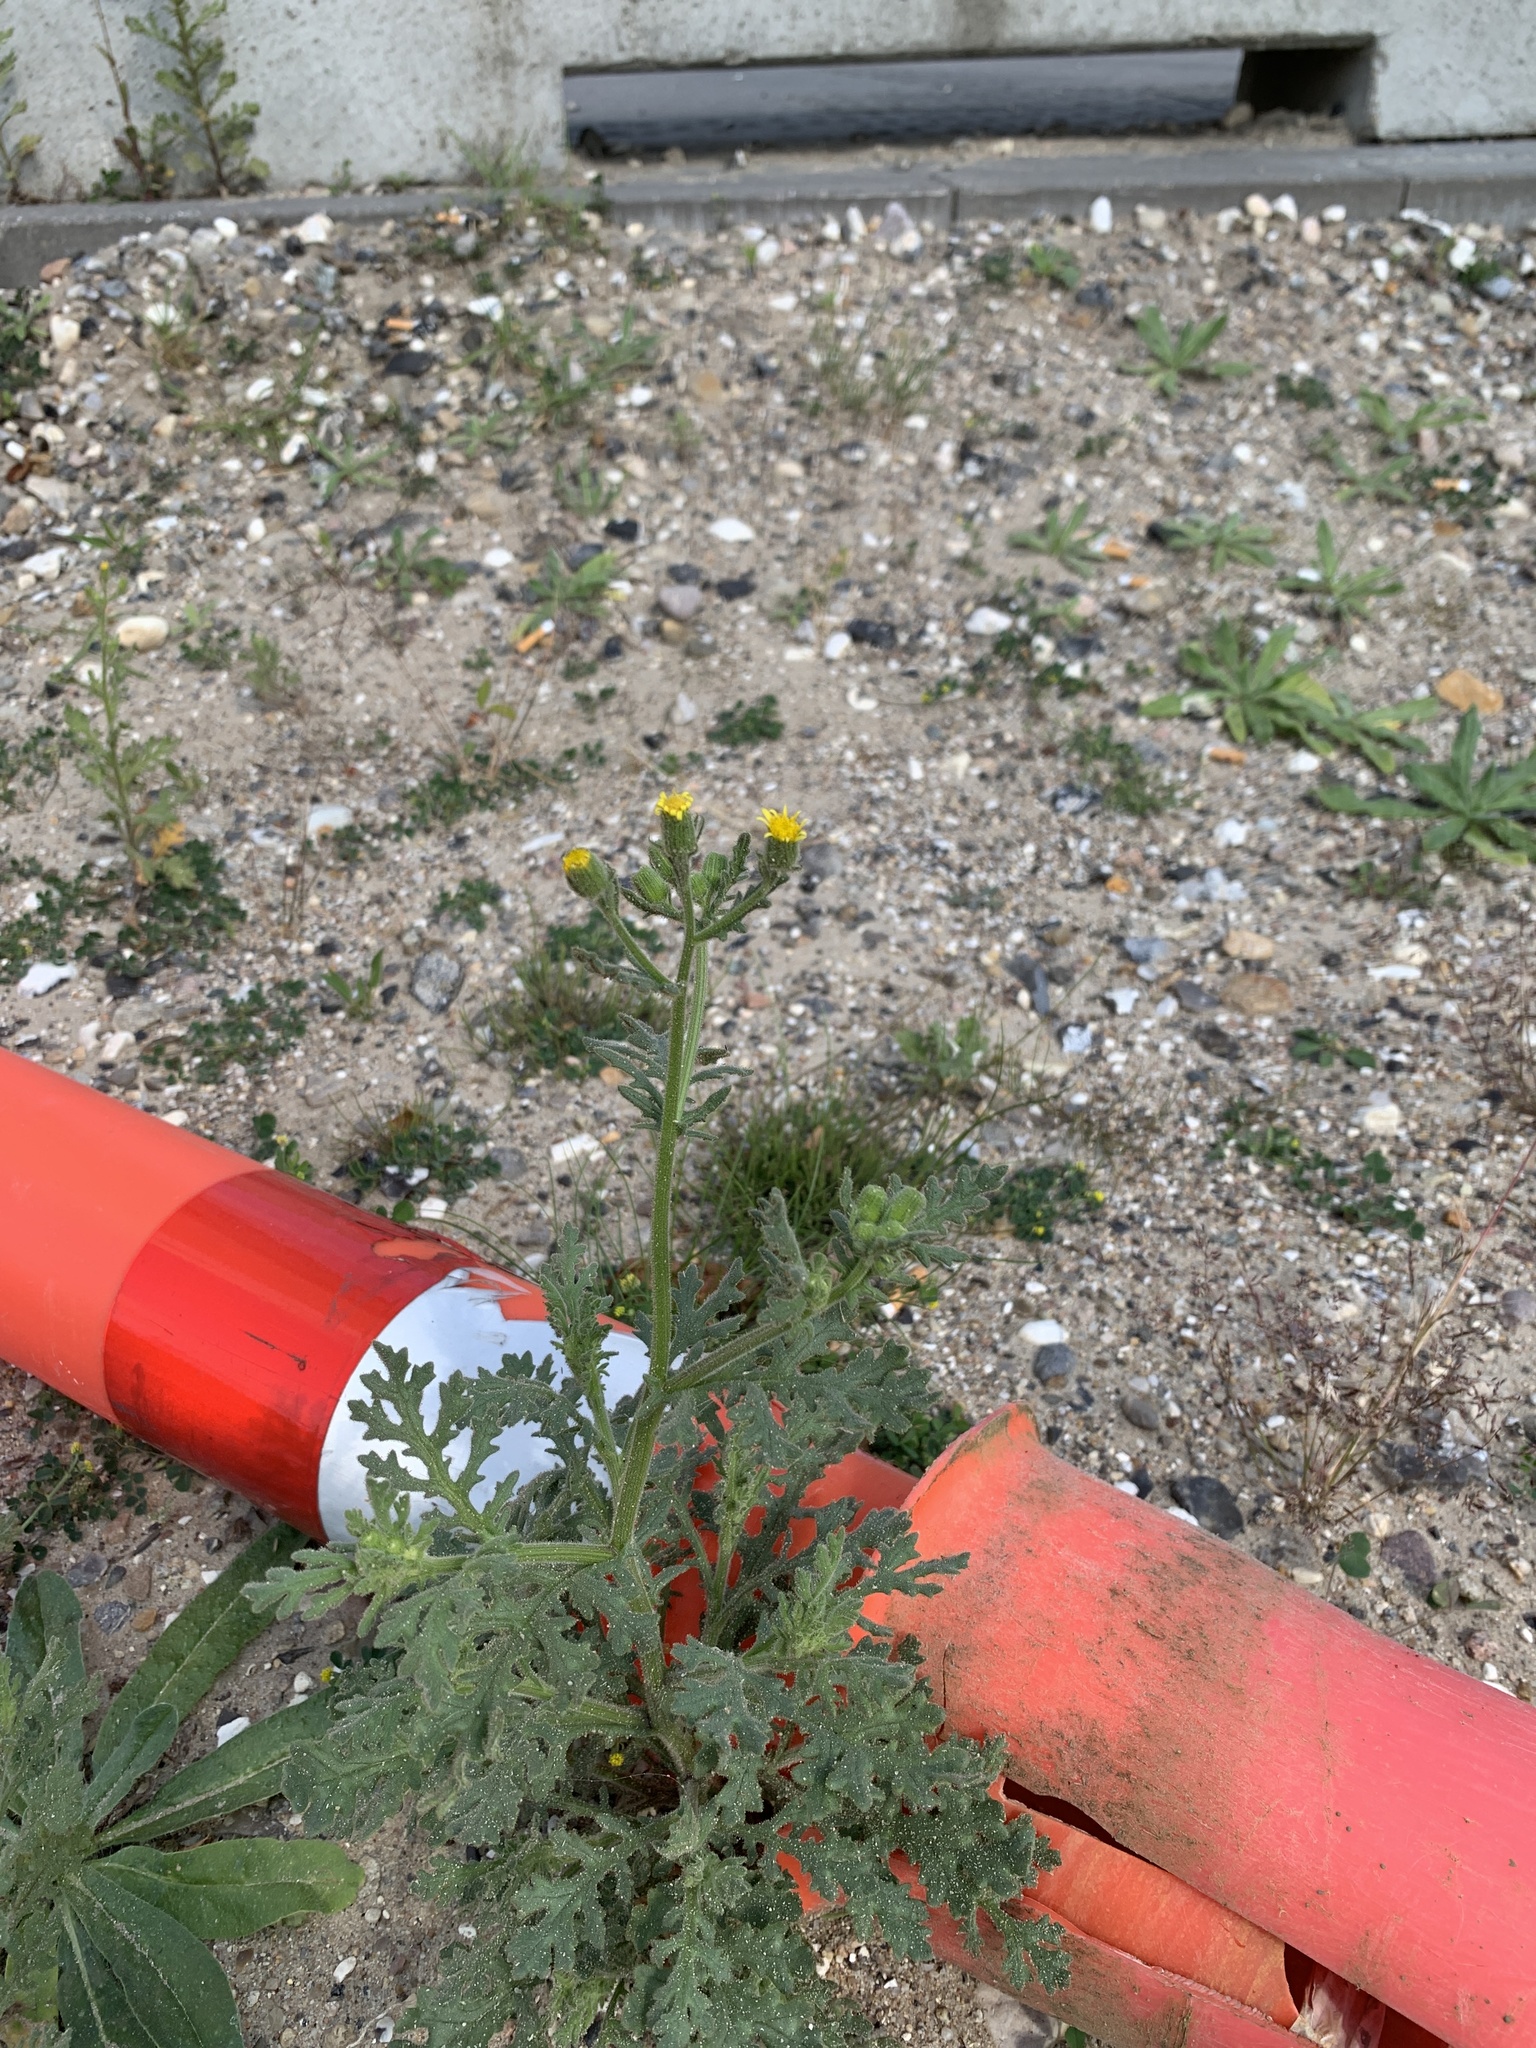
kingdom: Plantae
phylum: Tracheophyta
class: Magnoliopsida
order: Asterales
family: Asteraceae
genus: Senecio
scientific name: Senecio viscosus
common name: Sticky groundsel
